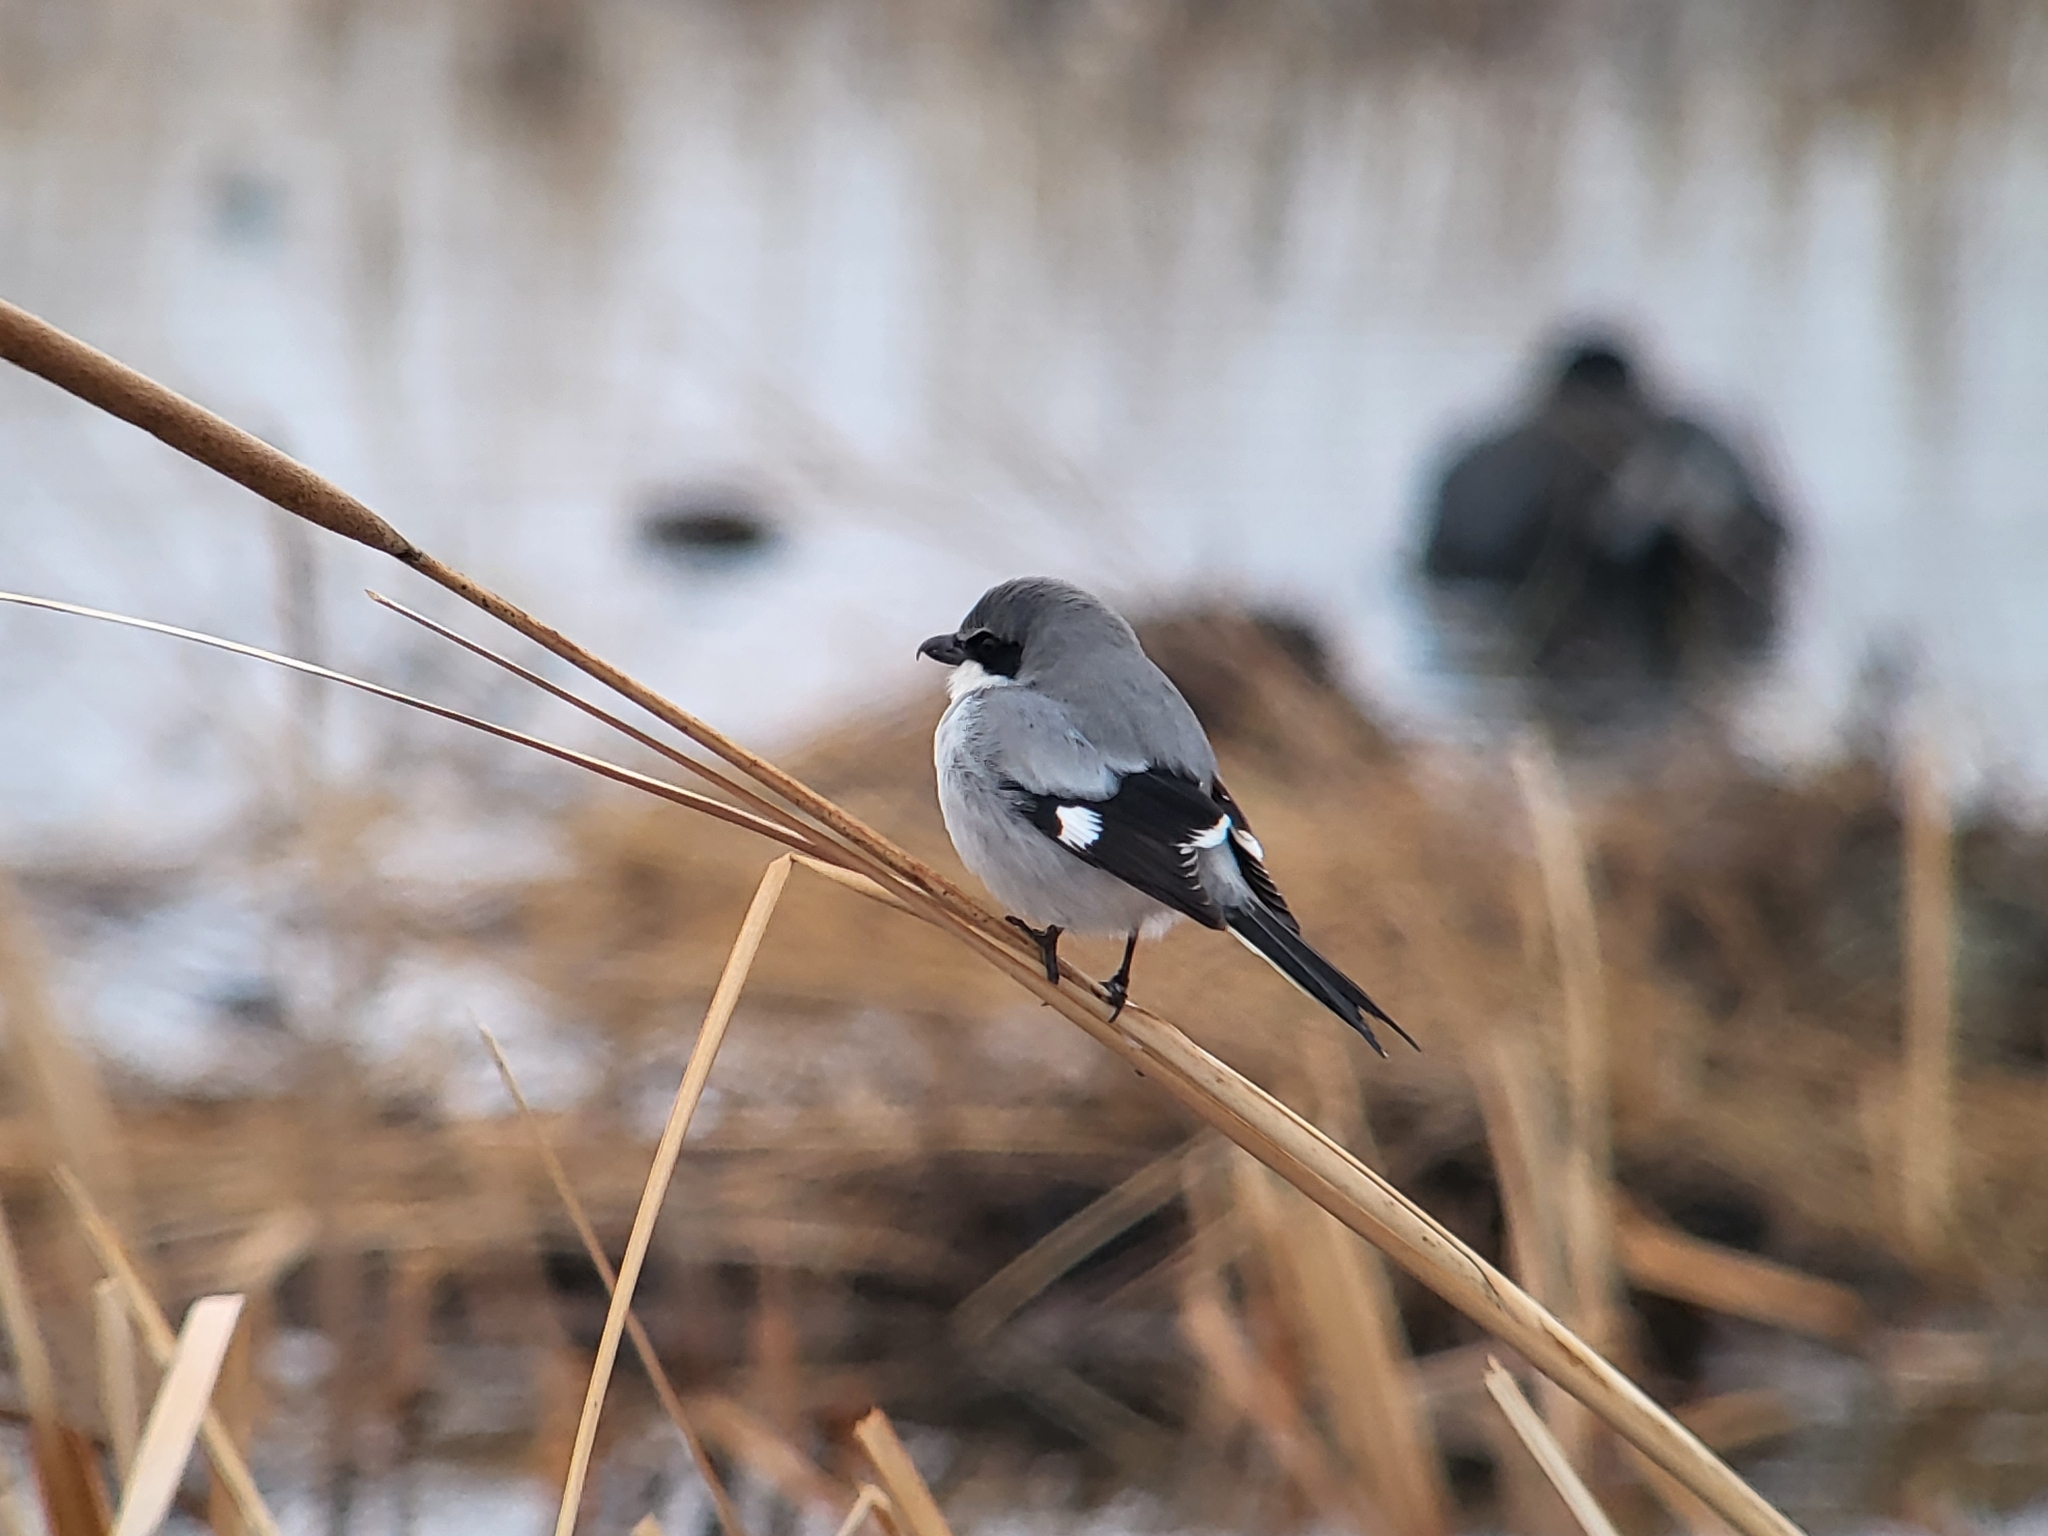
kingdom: Animalia
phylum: Chordata
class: Aves
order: Passeriformes
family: Laniidae
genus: Lanius
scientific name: Lanius ludovicianus
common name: Loggerhead shrike
